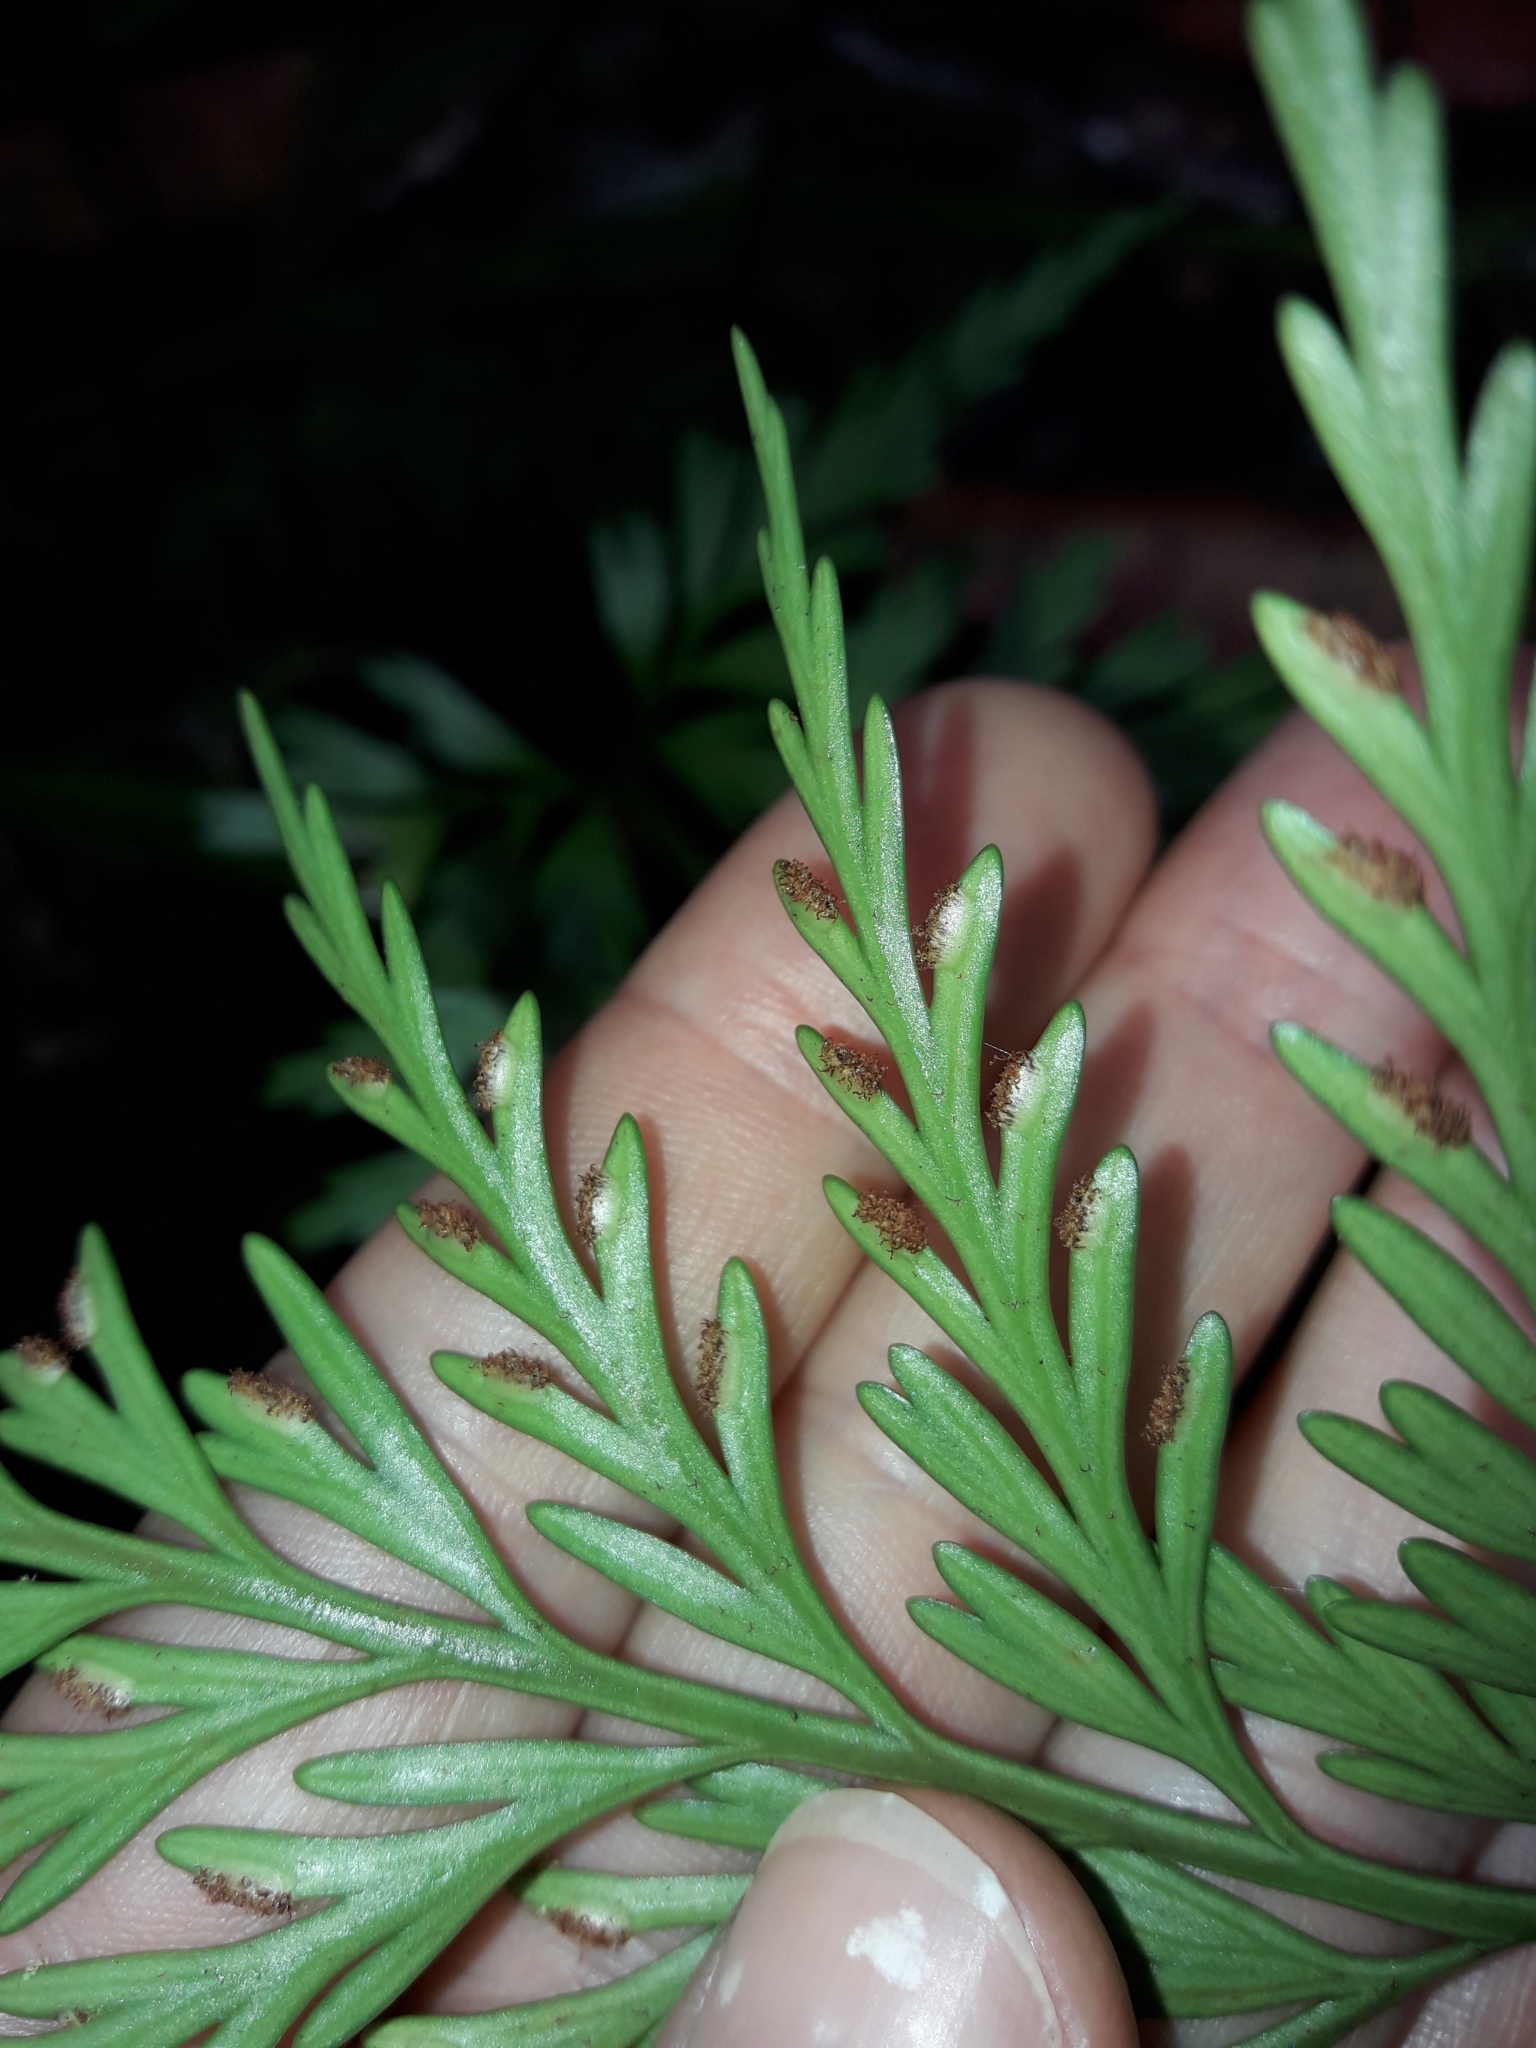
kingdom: Plantae
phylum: Tracheophyta
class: Polypodiopsida
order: Polypodiales
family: Aspleniaceae
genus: Asplenium
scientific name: Asplenium subflexuosum
